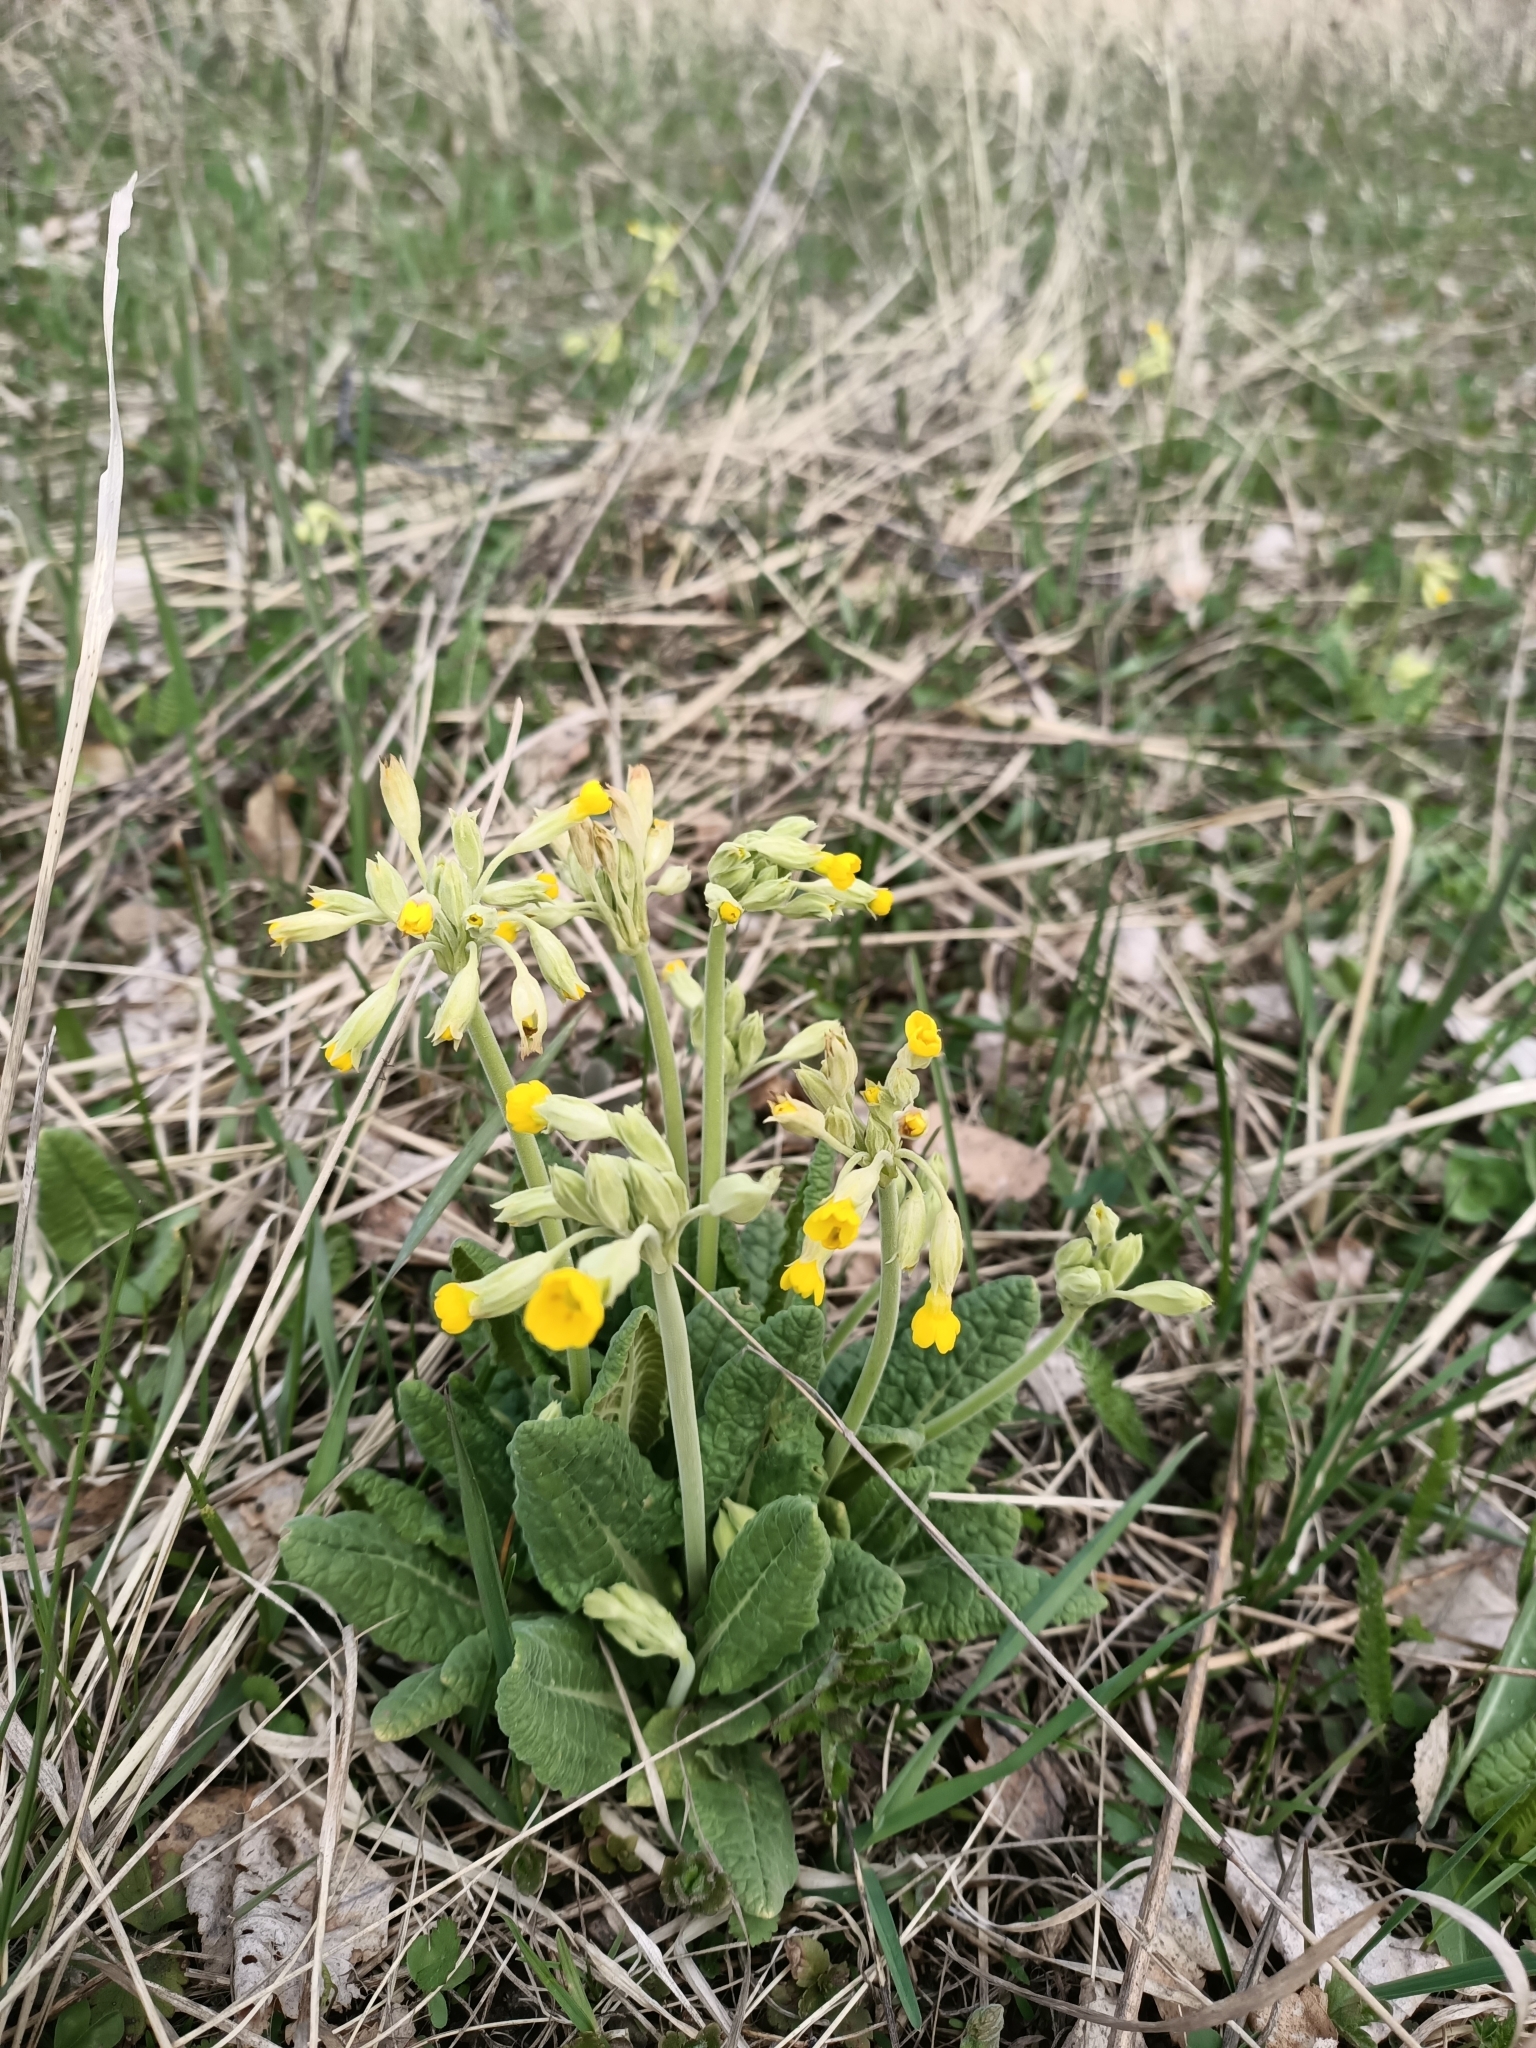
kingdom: Plantae
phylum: Tracheophyta
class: Magnoliopsida
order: Ericales
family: Primulaceae
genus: Primula
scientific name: Primula veris
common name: Cowslip
